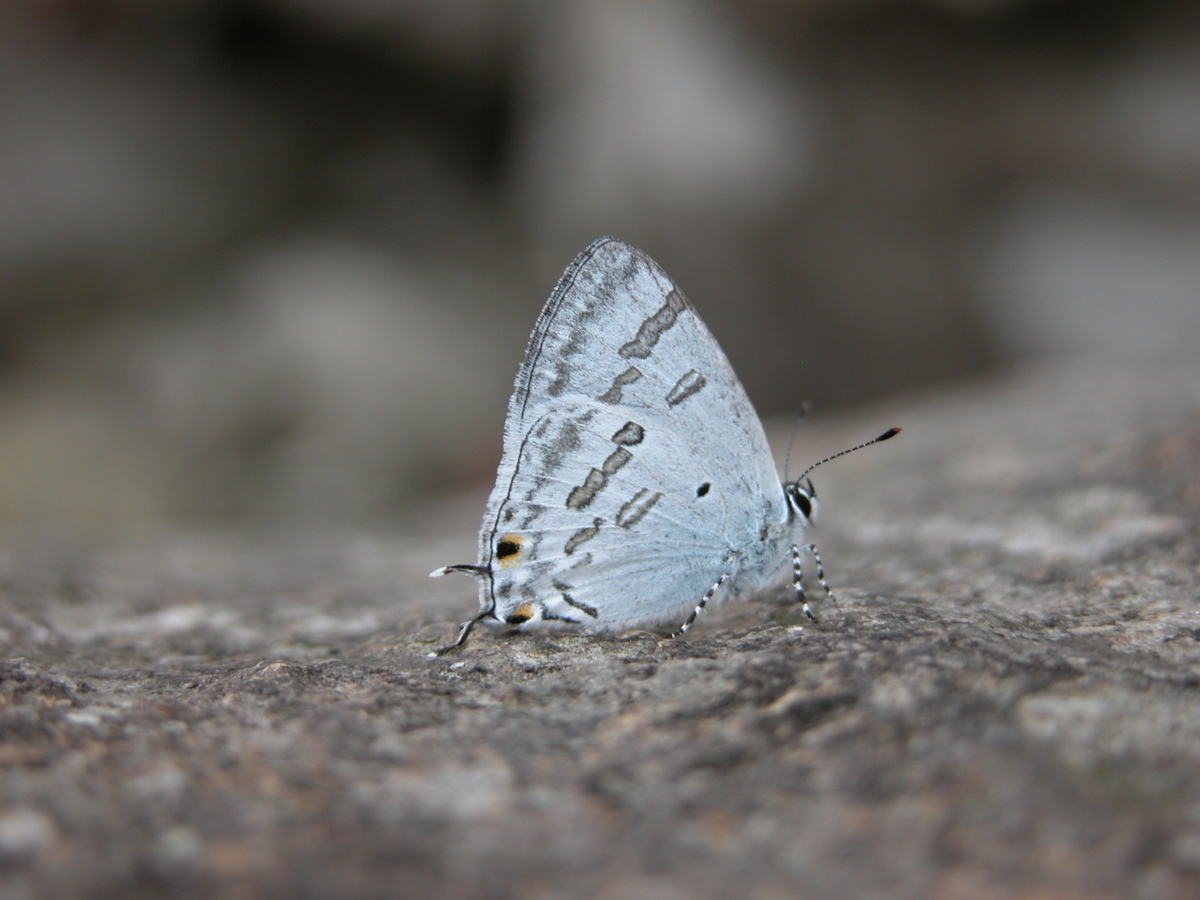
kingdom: Animalia
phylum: Arthropoda
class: Insecta
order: Lepidoptera
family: Lycaenidae
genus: Chliaria
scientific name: Chliaria kina
